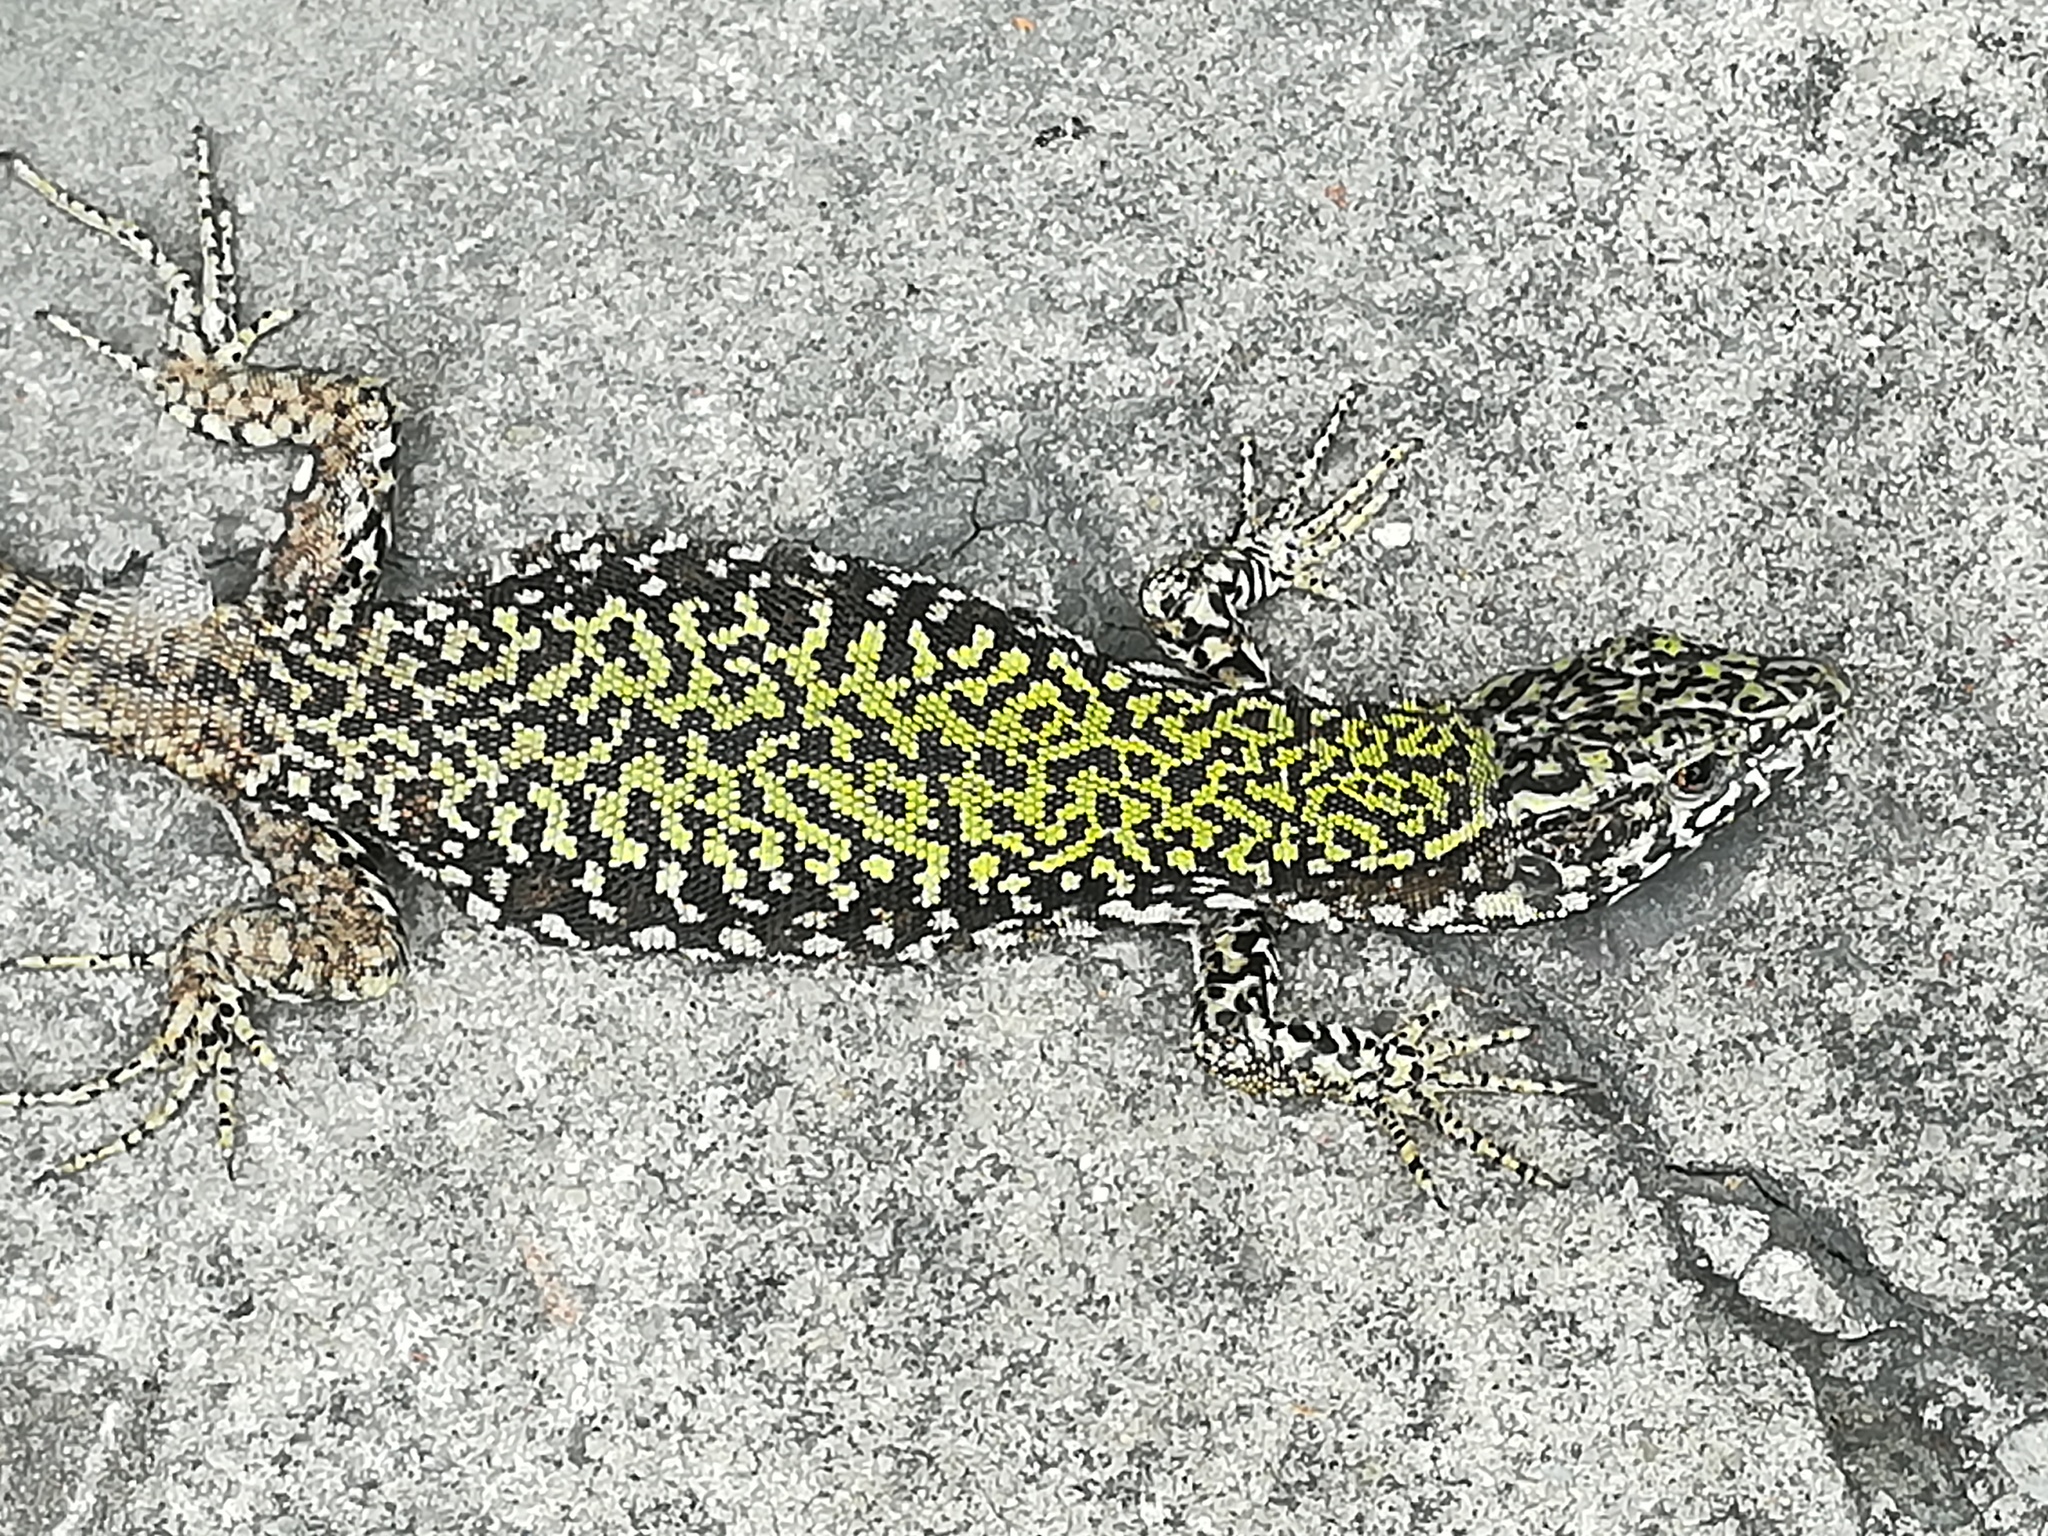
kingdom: Animalia
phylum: Chordata
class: Squamata
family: Lacertidae
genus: Podarcis
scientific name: Podarcis muralis
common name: Common wall lizard
